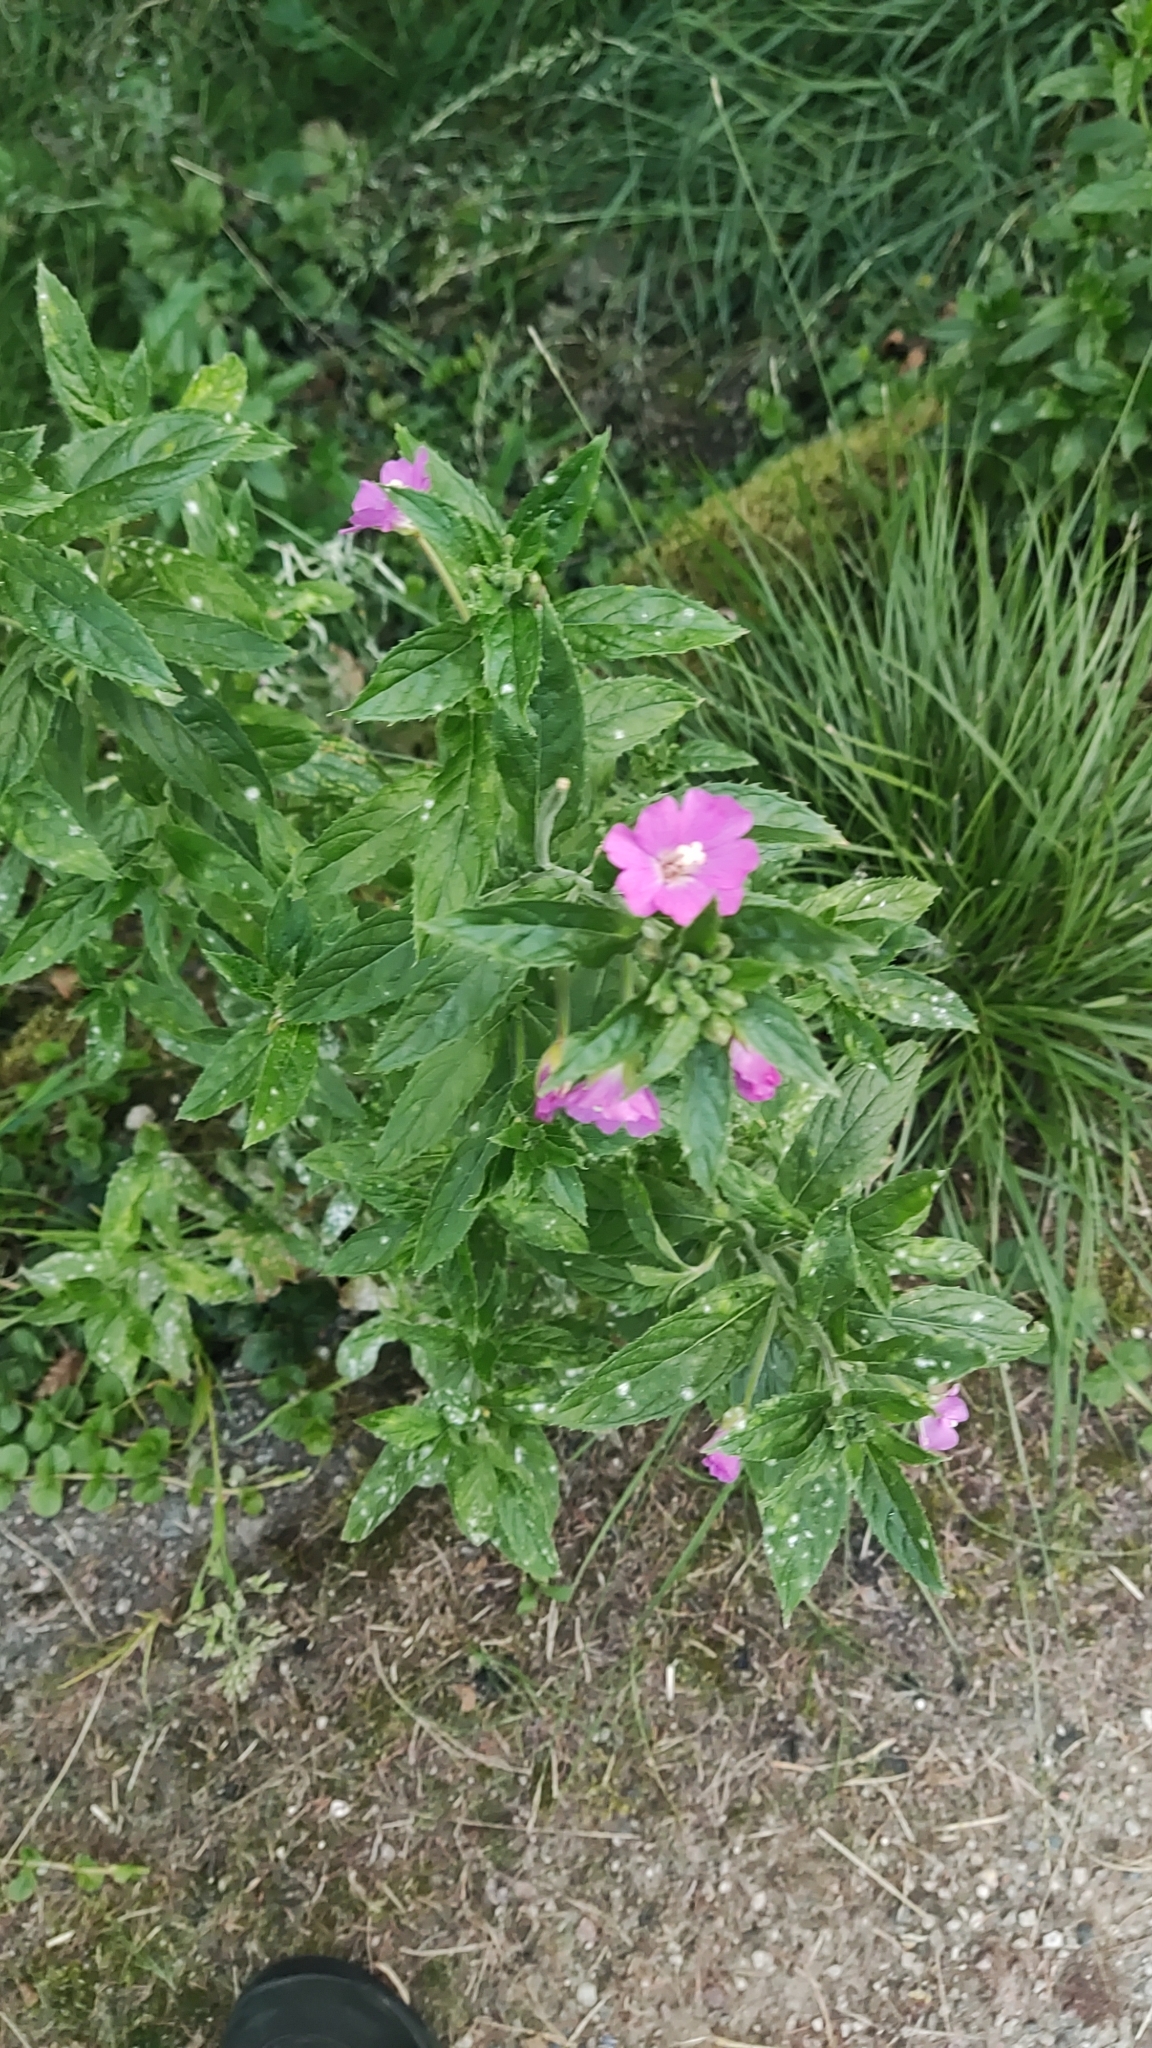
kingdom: Plantae
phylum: Tracheophyta
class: Magnoliopsida
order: Myrtales
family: Onagraceae
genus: Epilobium
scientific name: Epilobium hirsutum
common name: Great willowherb
